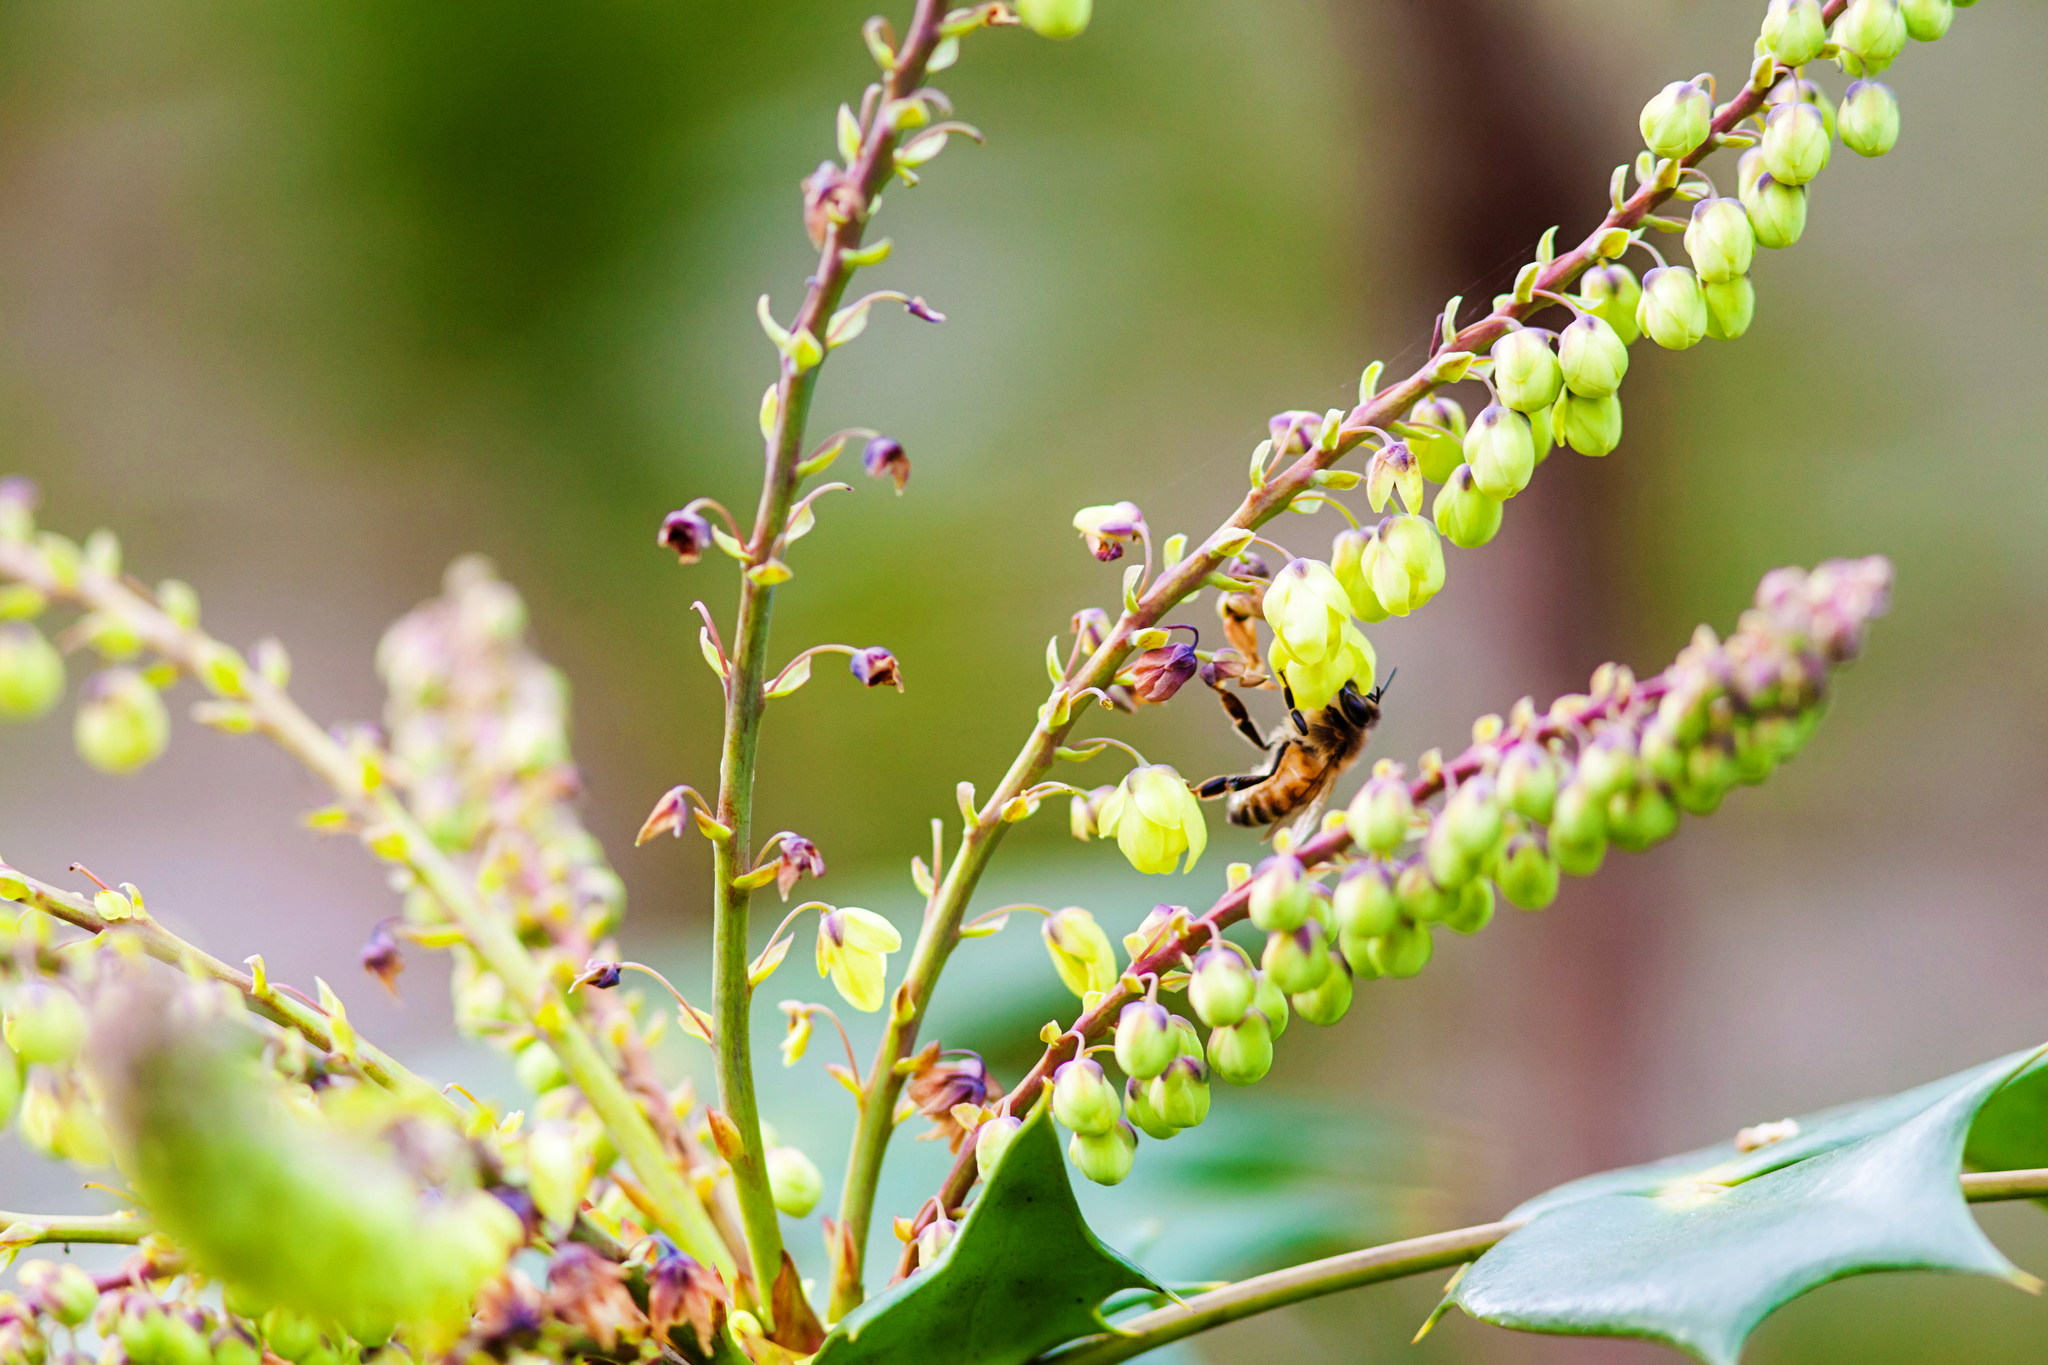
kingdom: Plantae
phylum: Tracheophyta
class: Magnoliopsida
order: Ranunculales
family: Berberidaceae
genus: Mahonia
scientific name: Mahonia bealei
